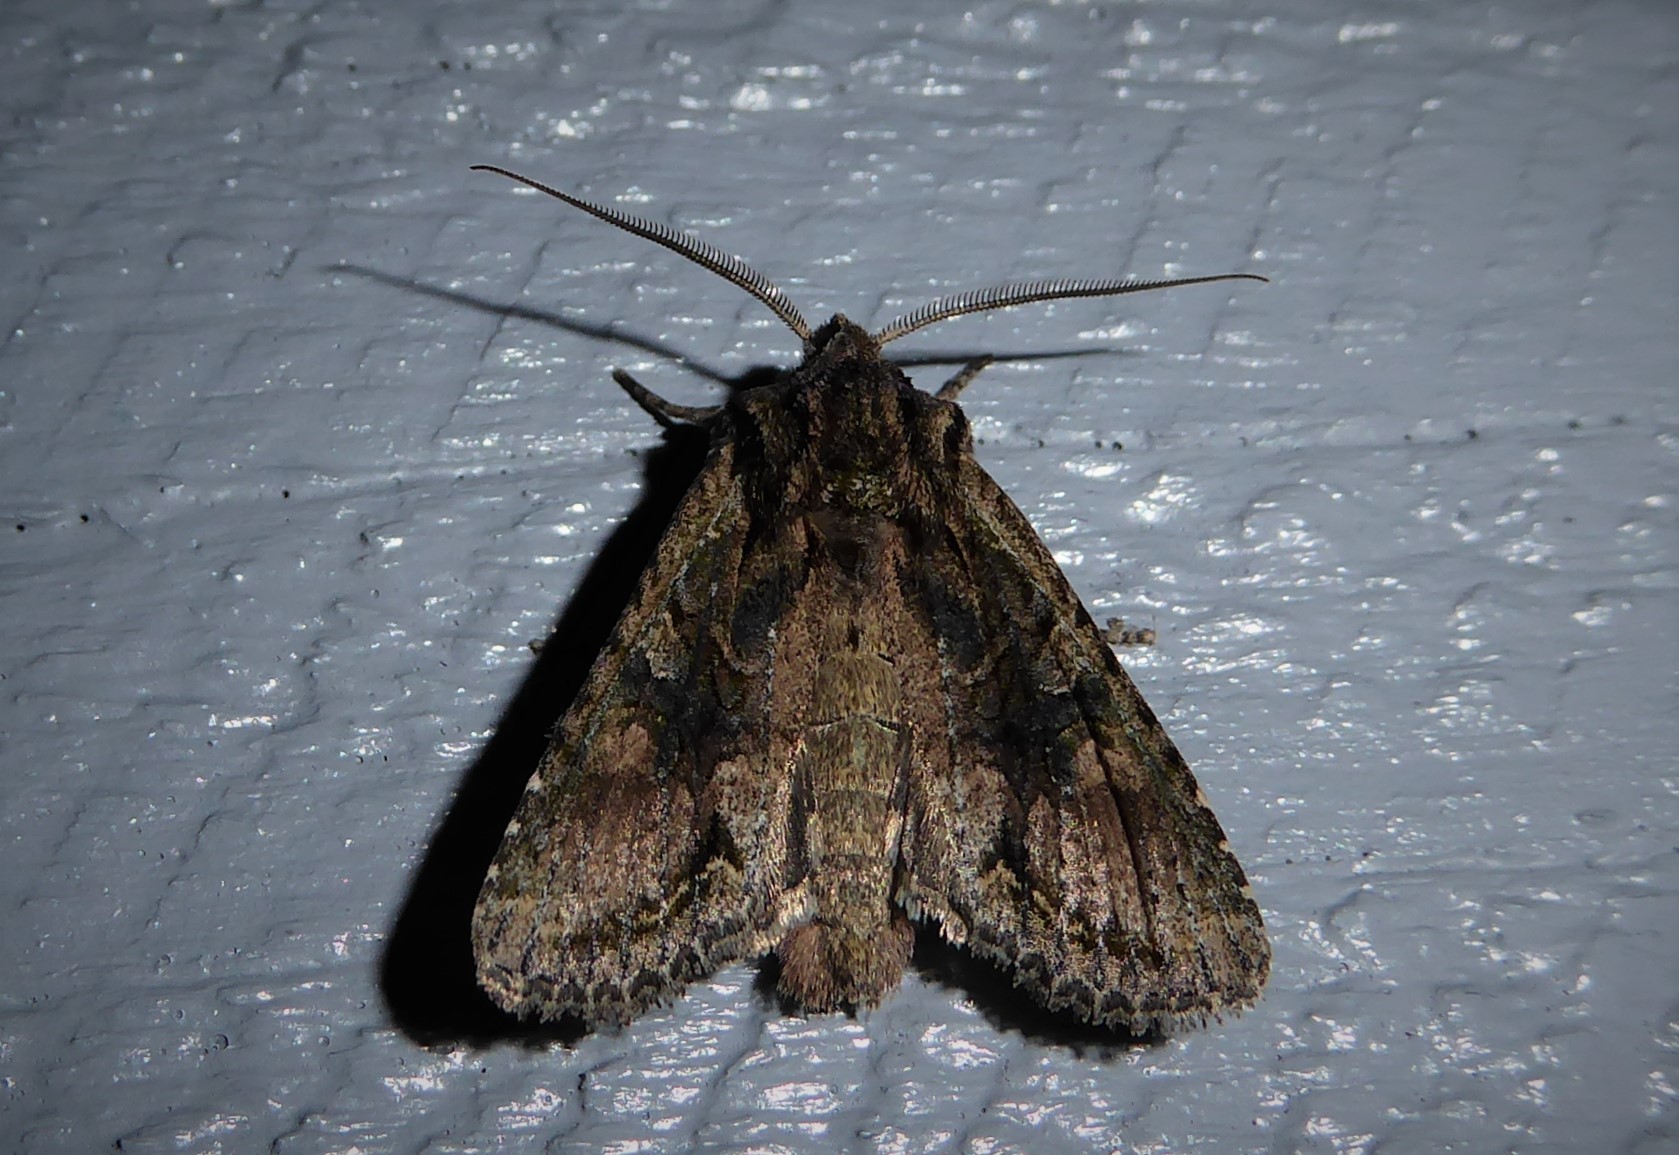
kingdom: Animalia
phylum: Arthropoda
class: Insecta
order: Lepidoptera
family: Noctuidae
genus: Ichneutica
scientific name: Ichneutica mutans
